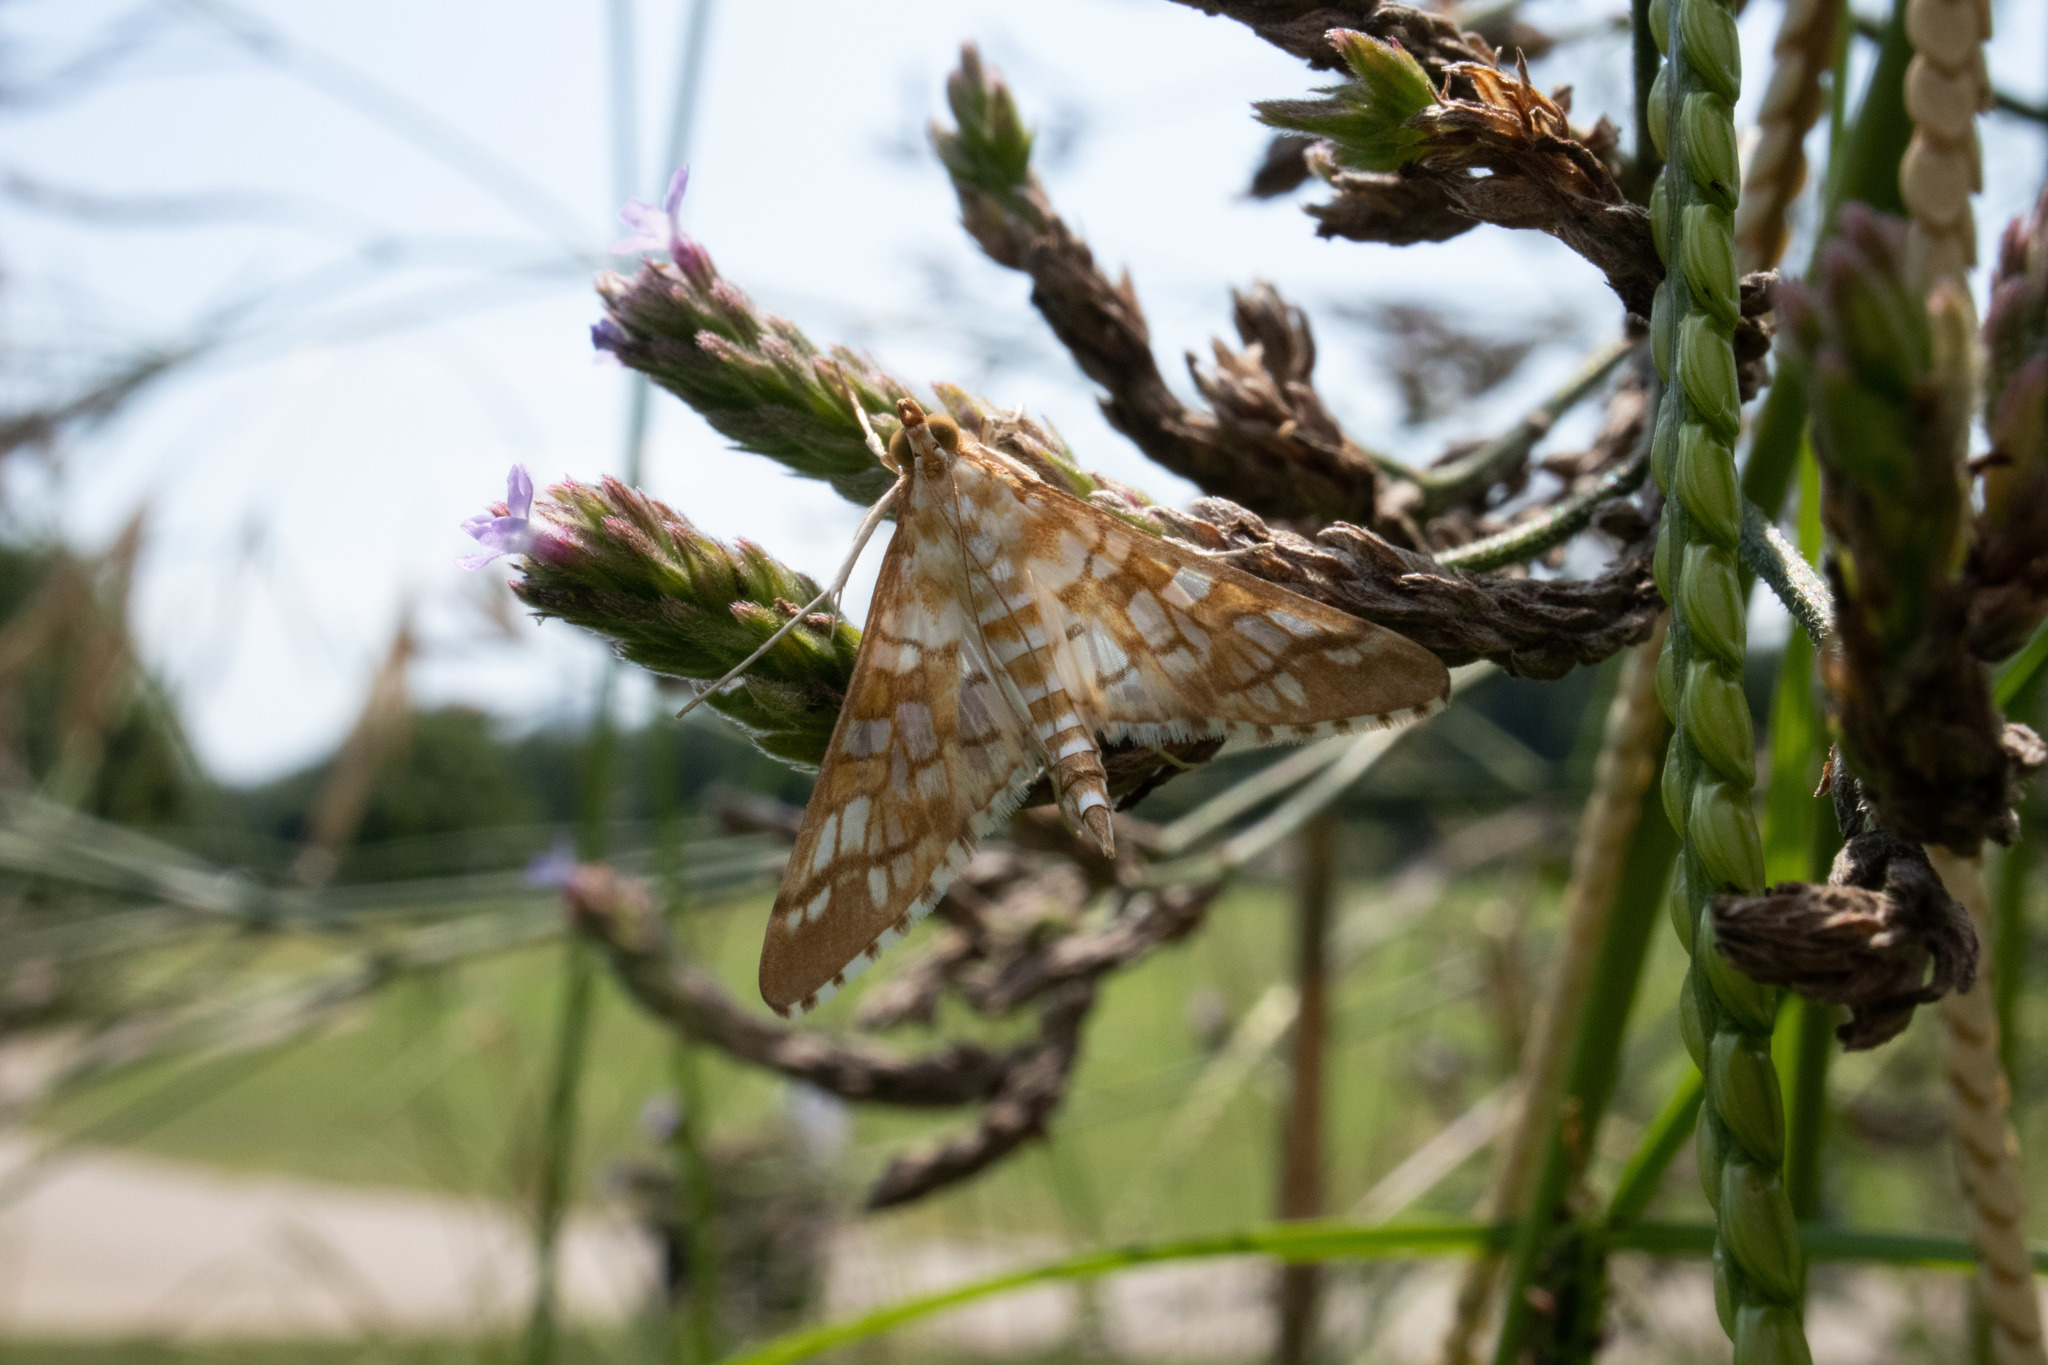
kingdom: Animalia
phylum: Arthropoda
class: Insecta
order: Lepidoptera
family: Crambidae
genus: Epipagis
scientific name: Epipagis fenestralis
